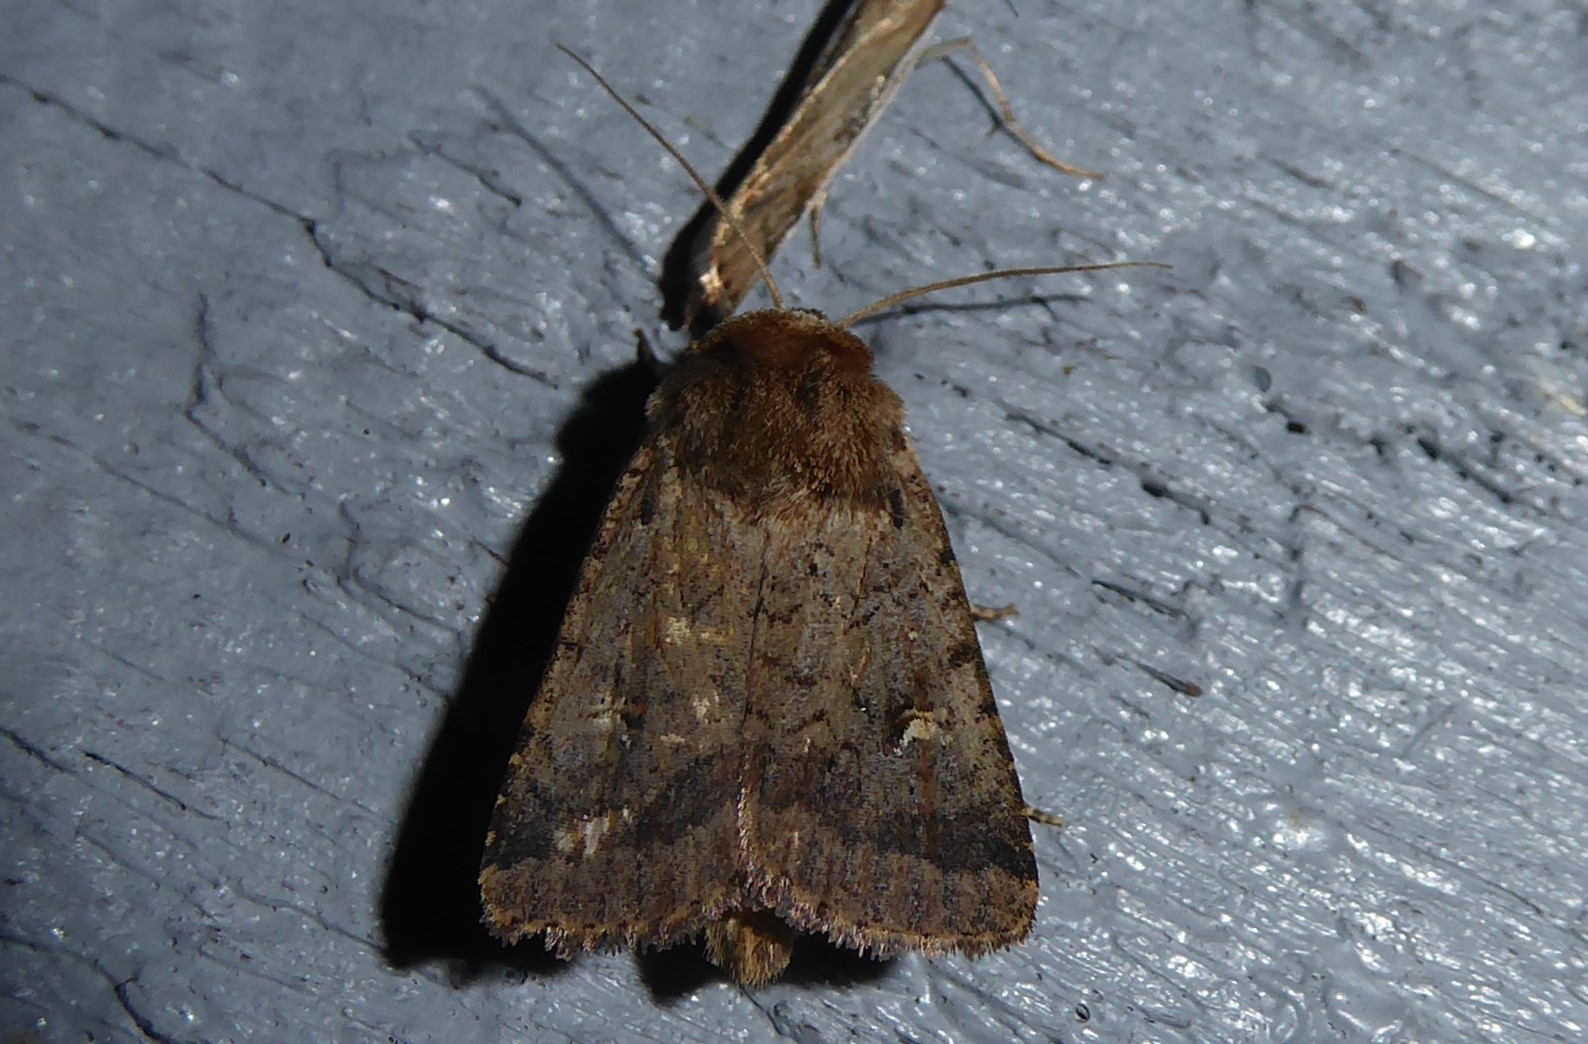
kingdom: Animalia
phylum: Arthropoda
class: Insecta
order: Lepidoptera
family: Noctuidae
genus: Proteuxoa
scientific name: Proteuxoa tetronycha
